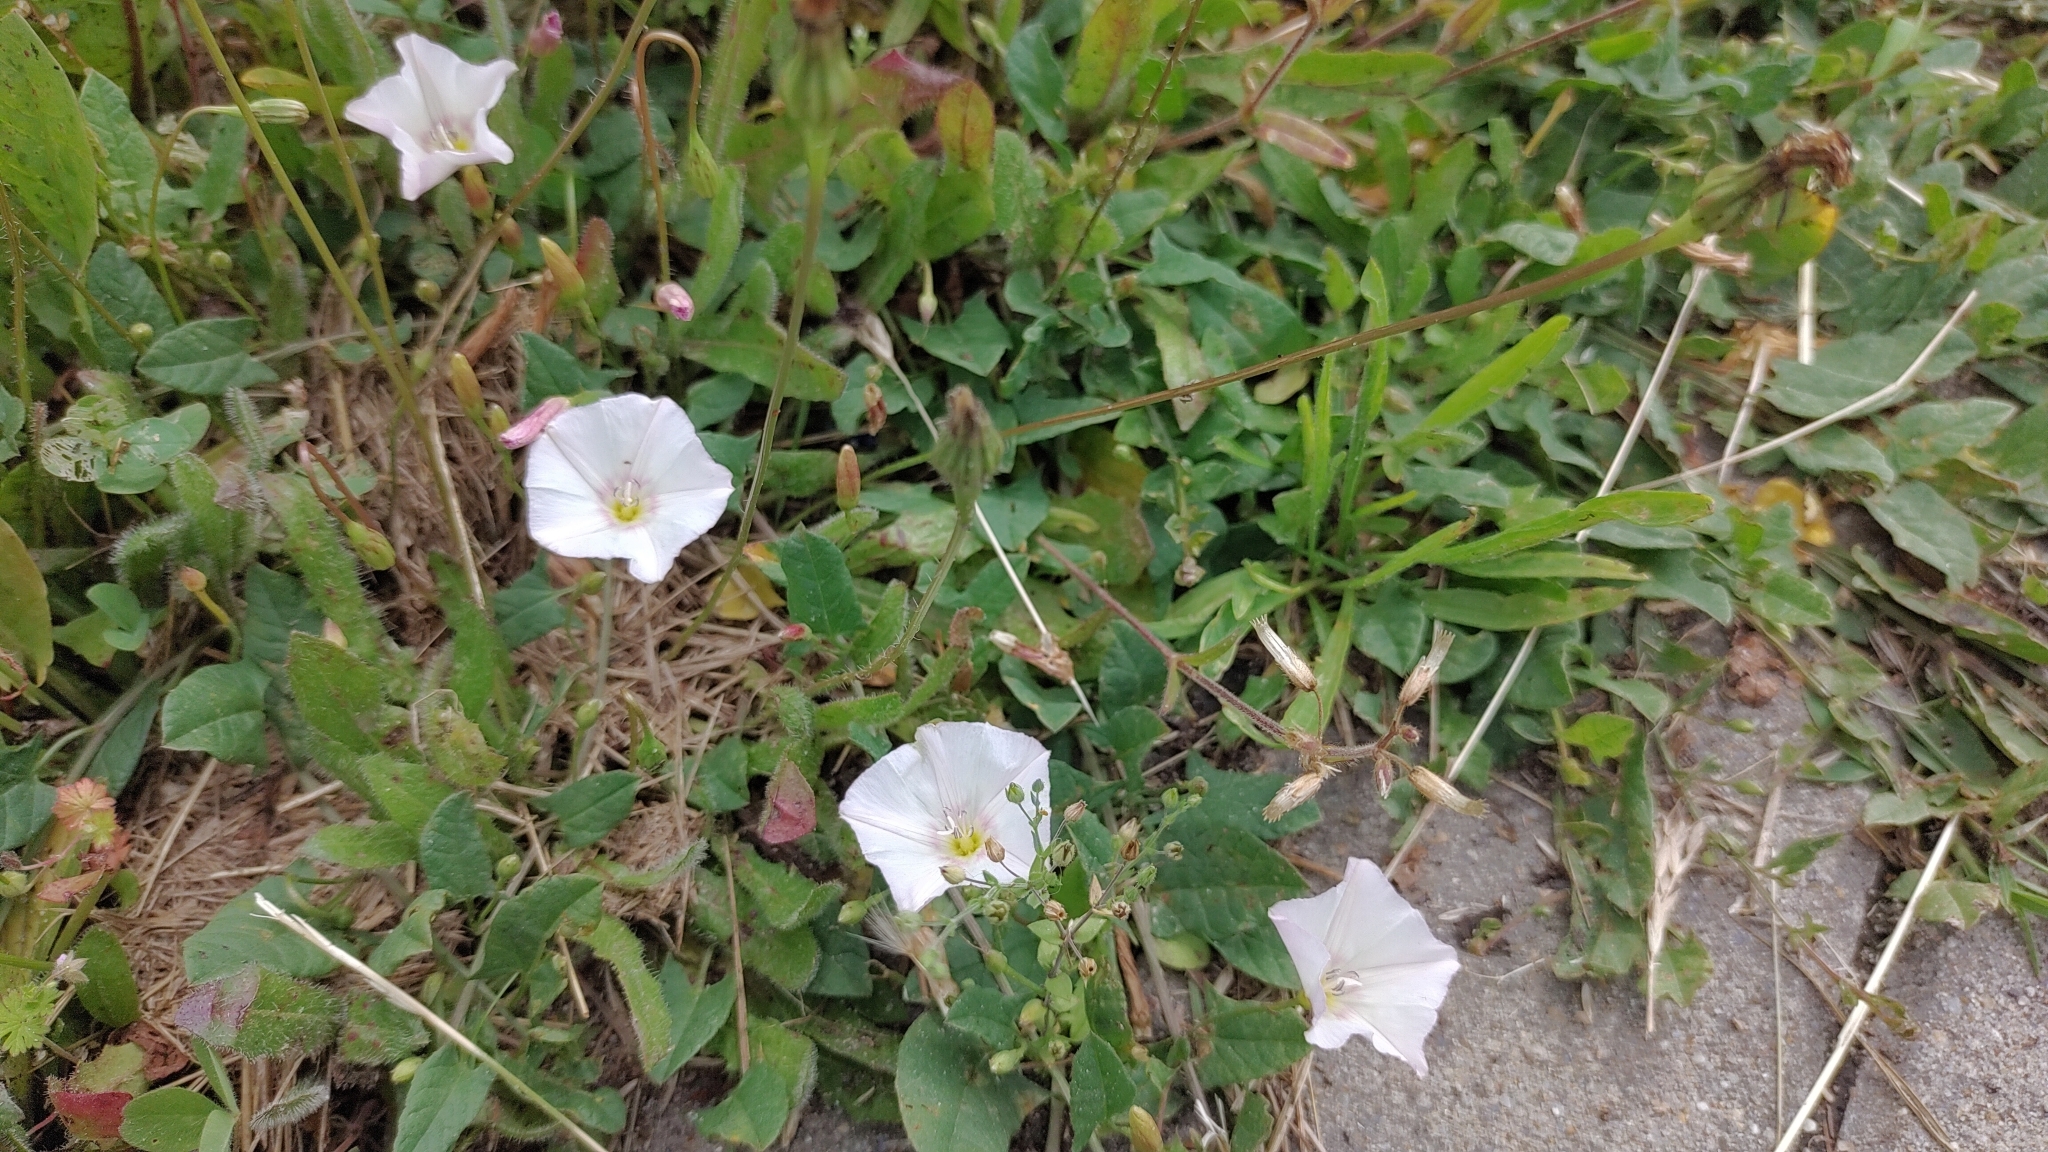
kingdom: Plantae
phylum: Tracheophyta
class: Magnoliopsida
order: Solanales
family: Convolvulaceae
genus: Convolvulus
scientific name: Convolvulus arvensis
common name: Field bindweed
